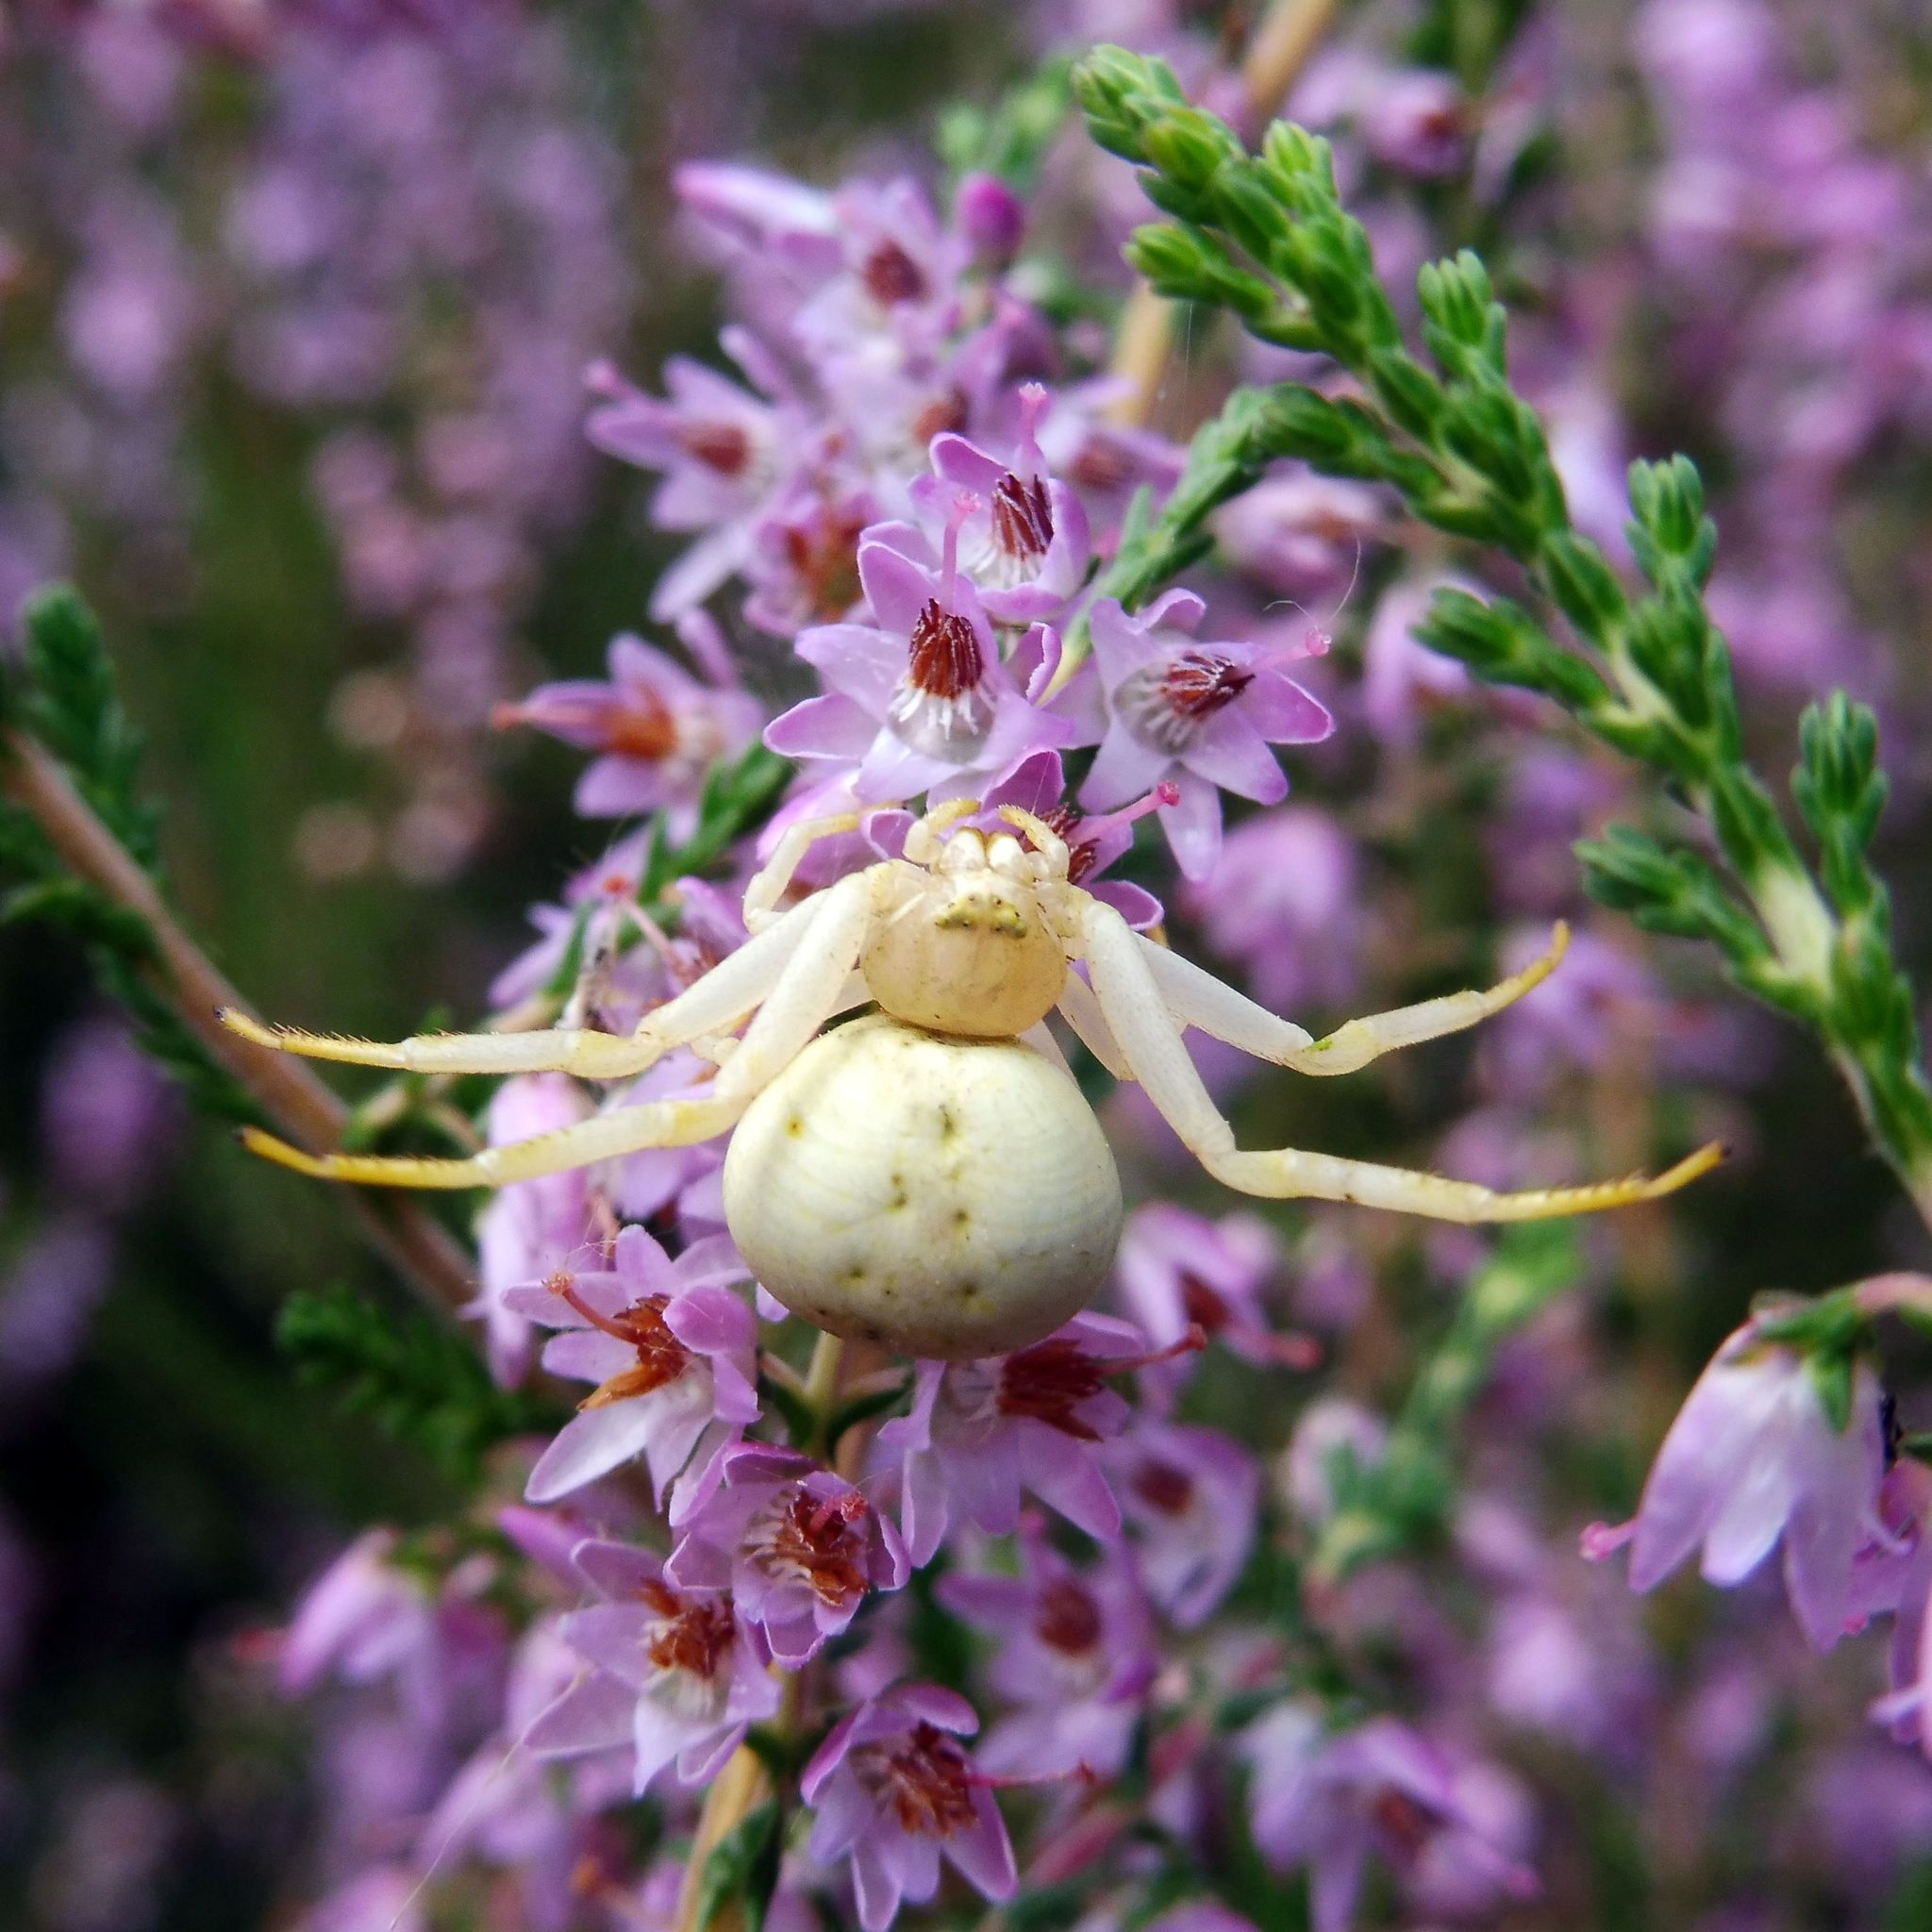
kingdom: Animalia
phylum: Arthropoda
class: Arachnida
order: Araneae
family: Thomisidae
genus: Misumena
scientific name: Misumena vatia
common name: Goldenrod crab spider
